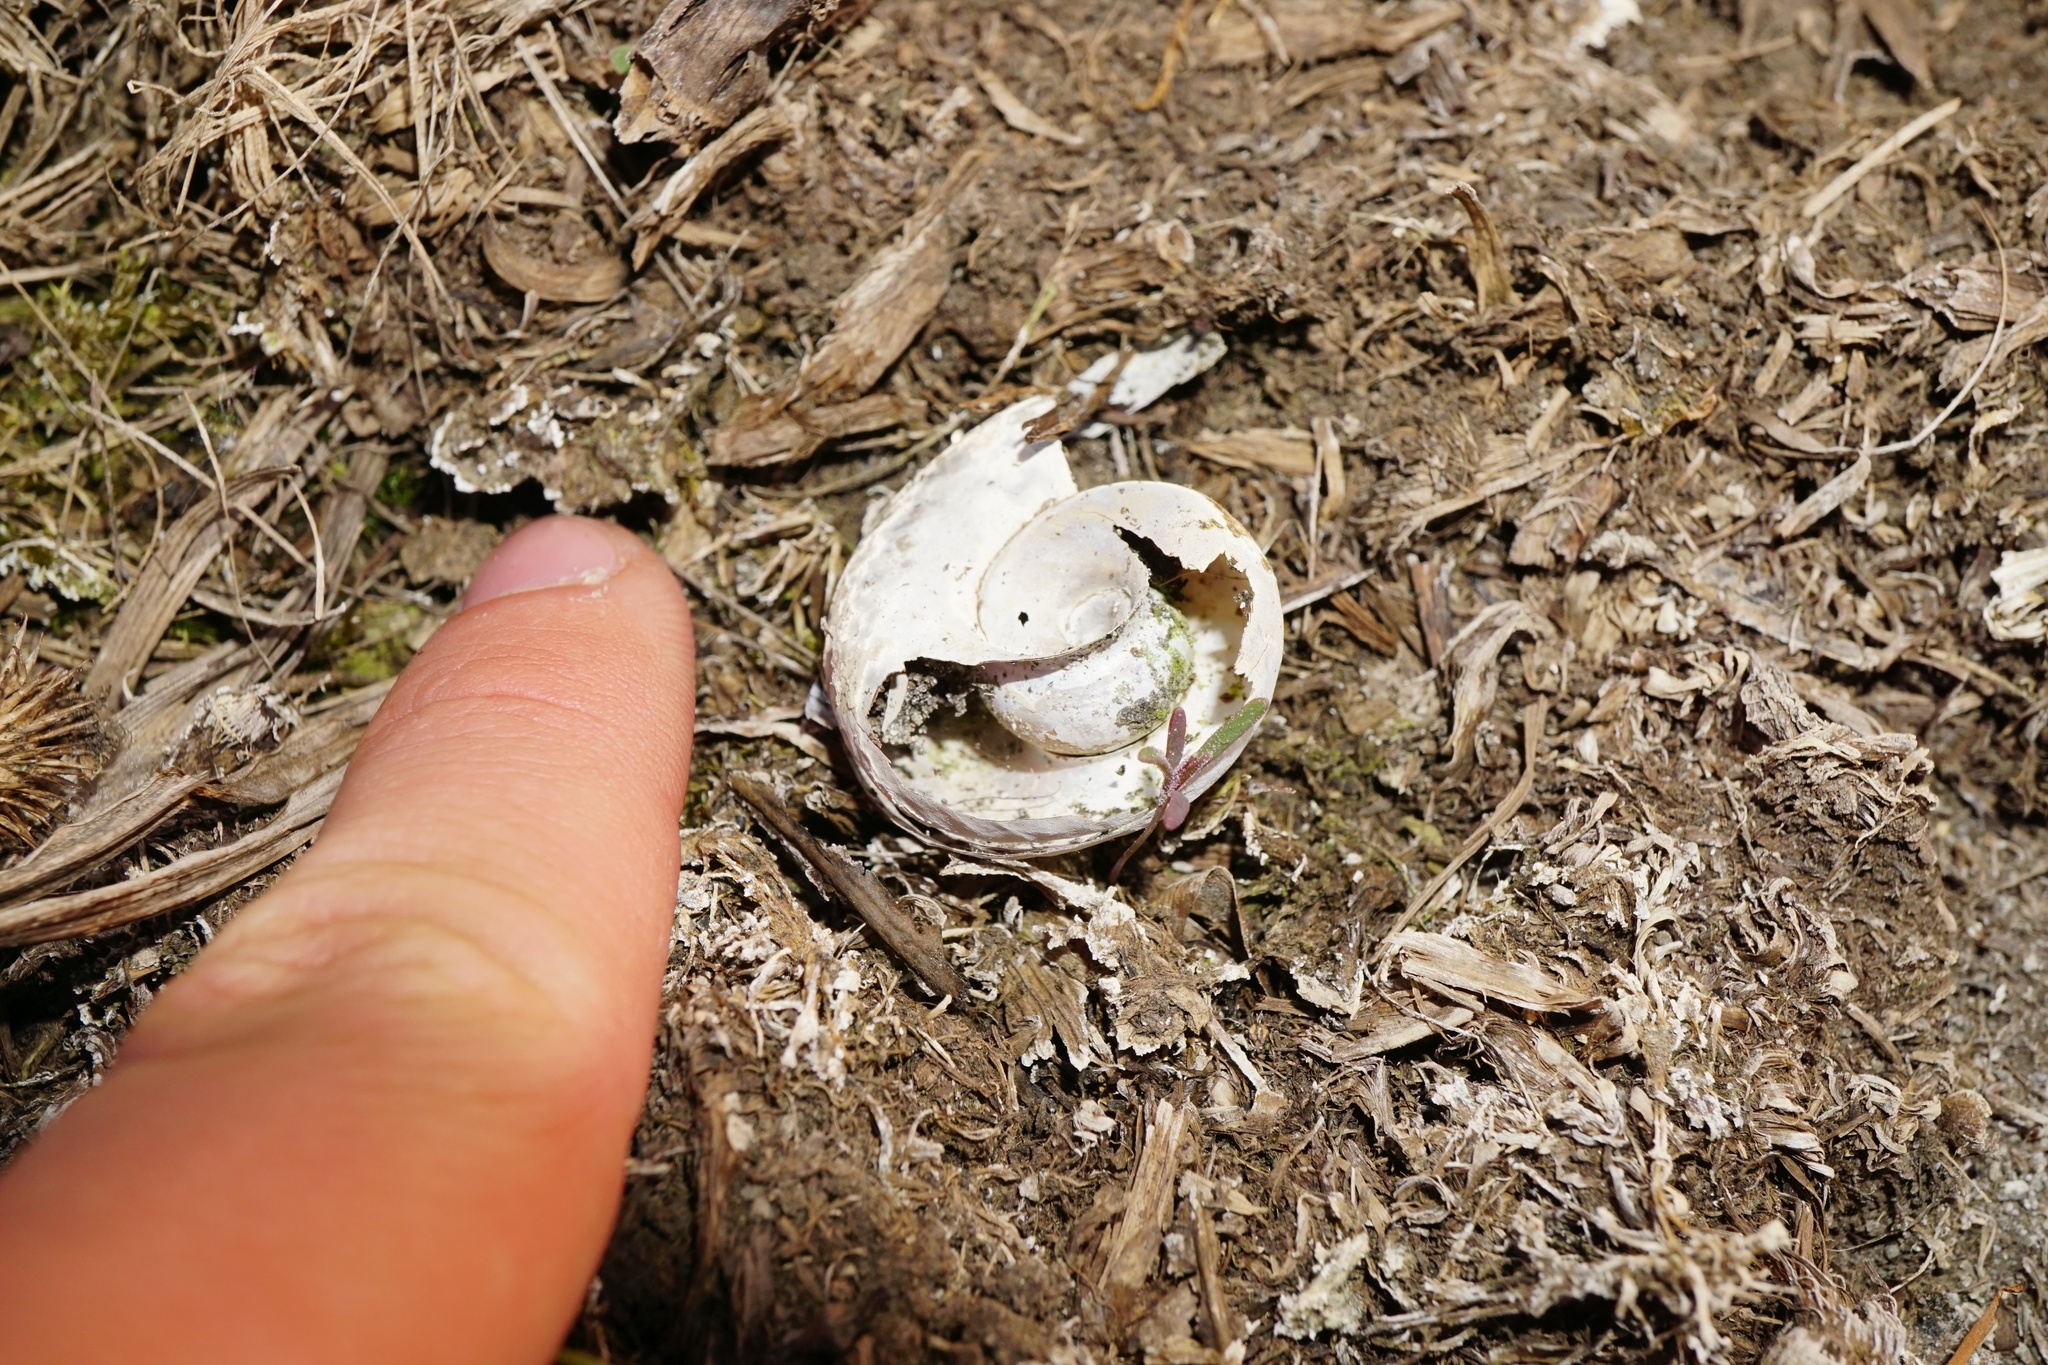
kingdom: Animalia
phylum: Mollusca
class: Gastropoda
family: Planorbidae
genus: Planorbarius
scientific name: Planorbarius corneus
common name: Great ramshorn
